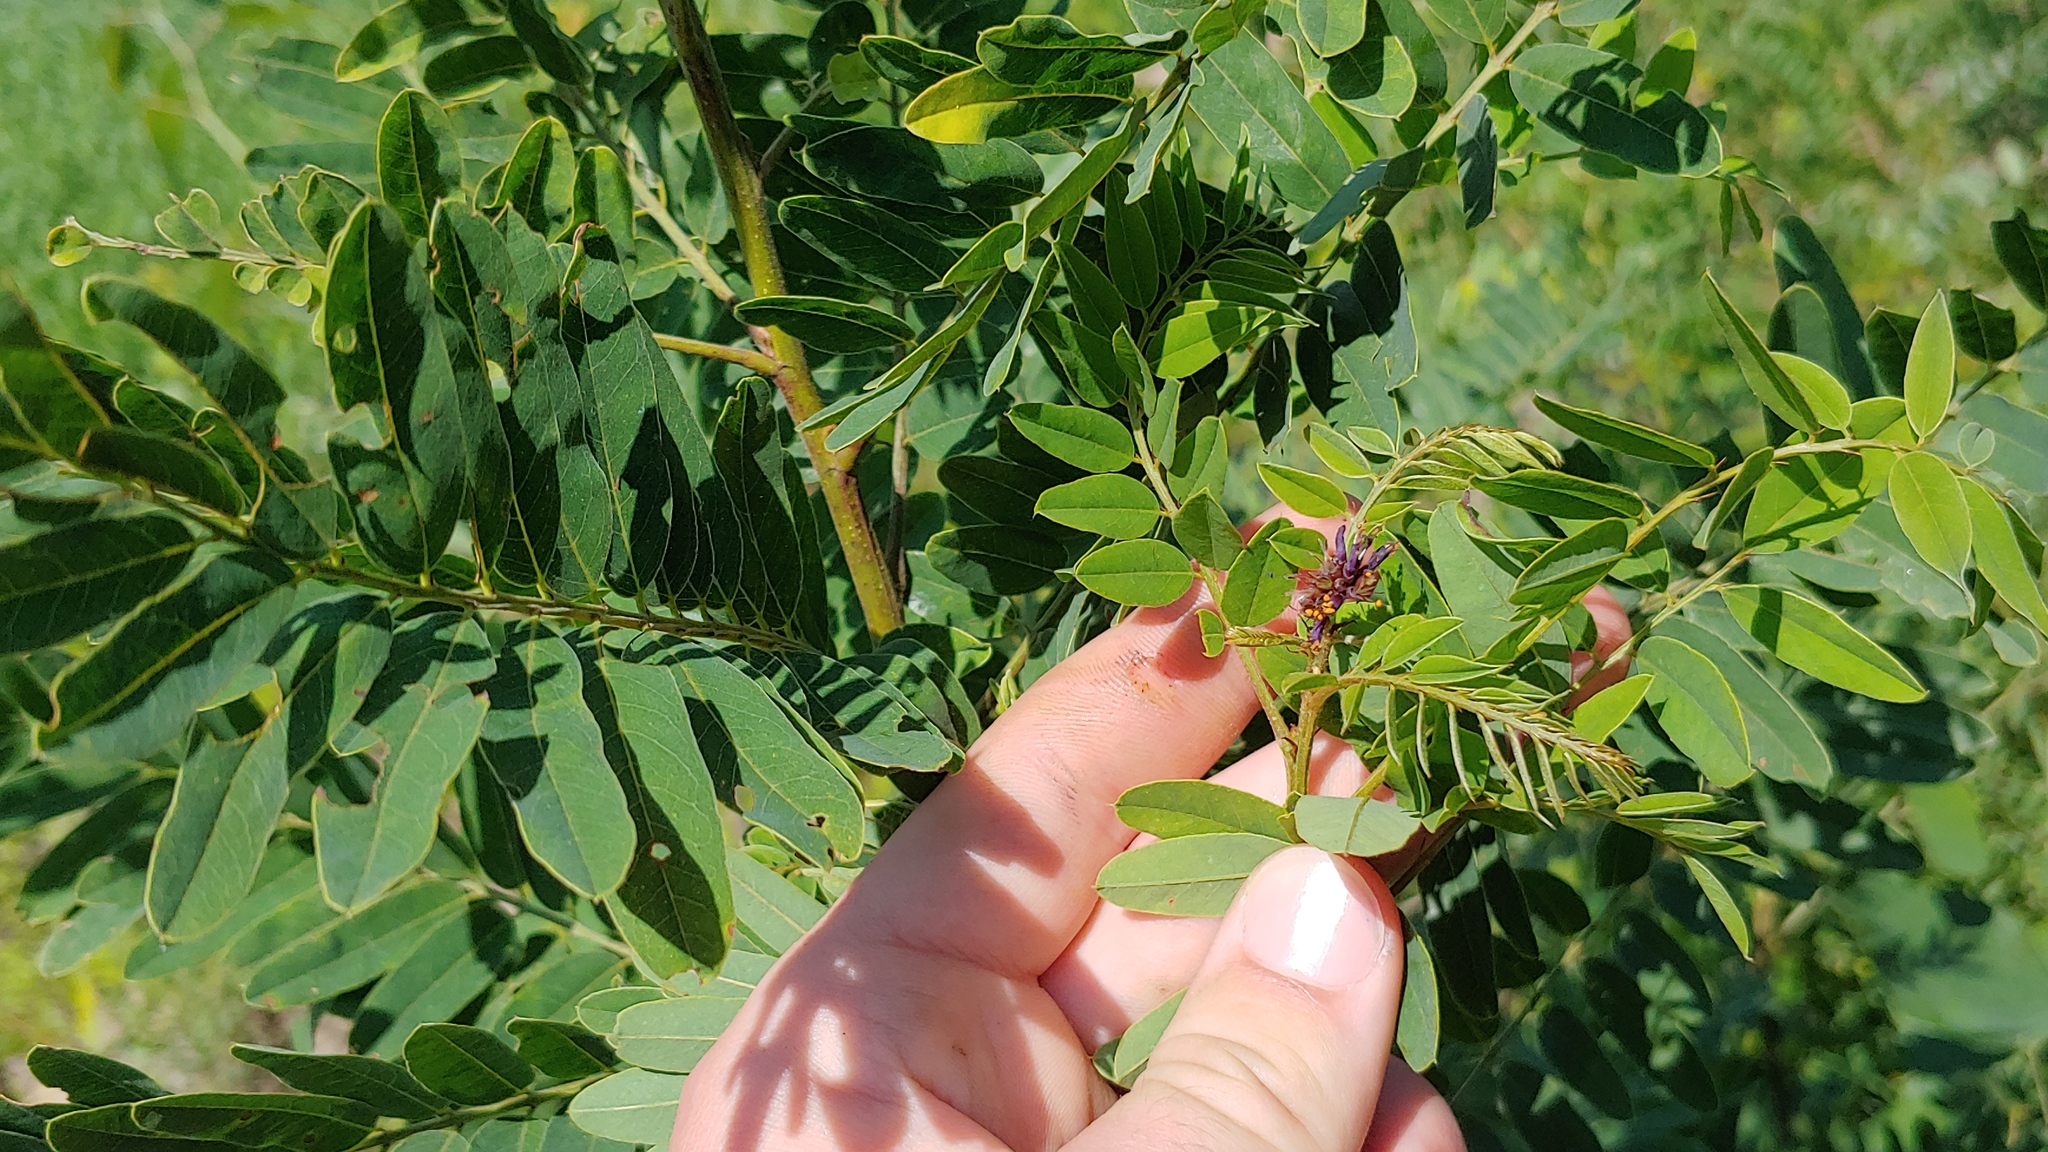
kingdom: Plantae
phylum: Tracheophyta
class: Magnoliopsida
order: Fabales
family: Fabaceae
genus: Amorpha
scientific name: Amorpha fruticosa
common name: False indigo
